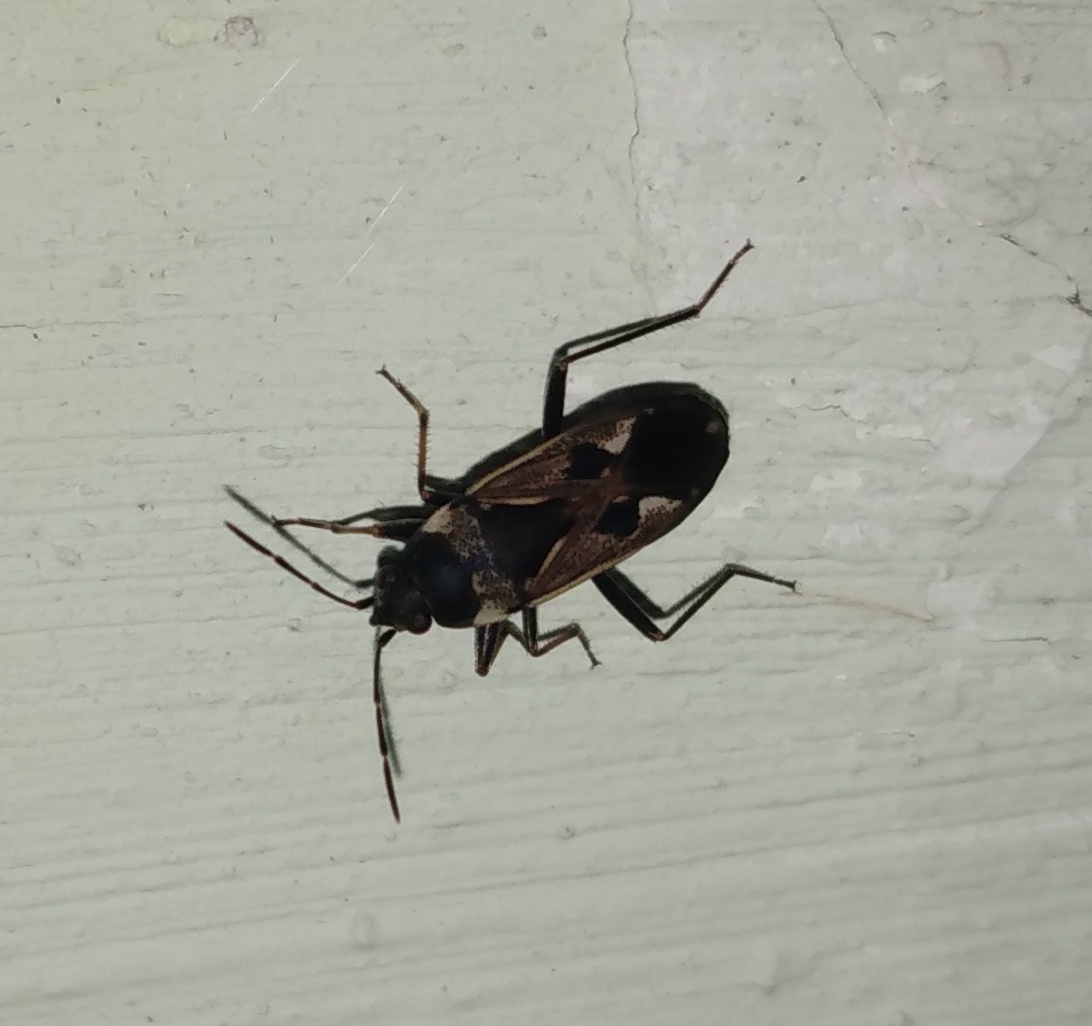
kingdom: Animalia
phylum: Arthropoda
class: Insecta
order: Hemiptera
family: Rhyparochromidae
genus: Rhyparochromus
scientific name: Rhyparochromus vulgaris
